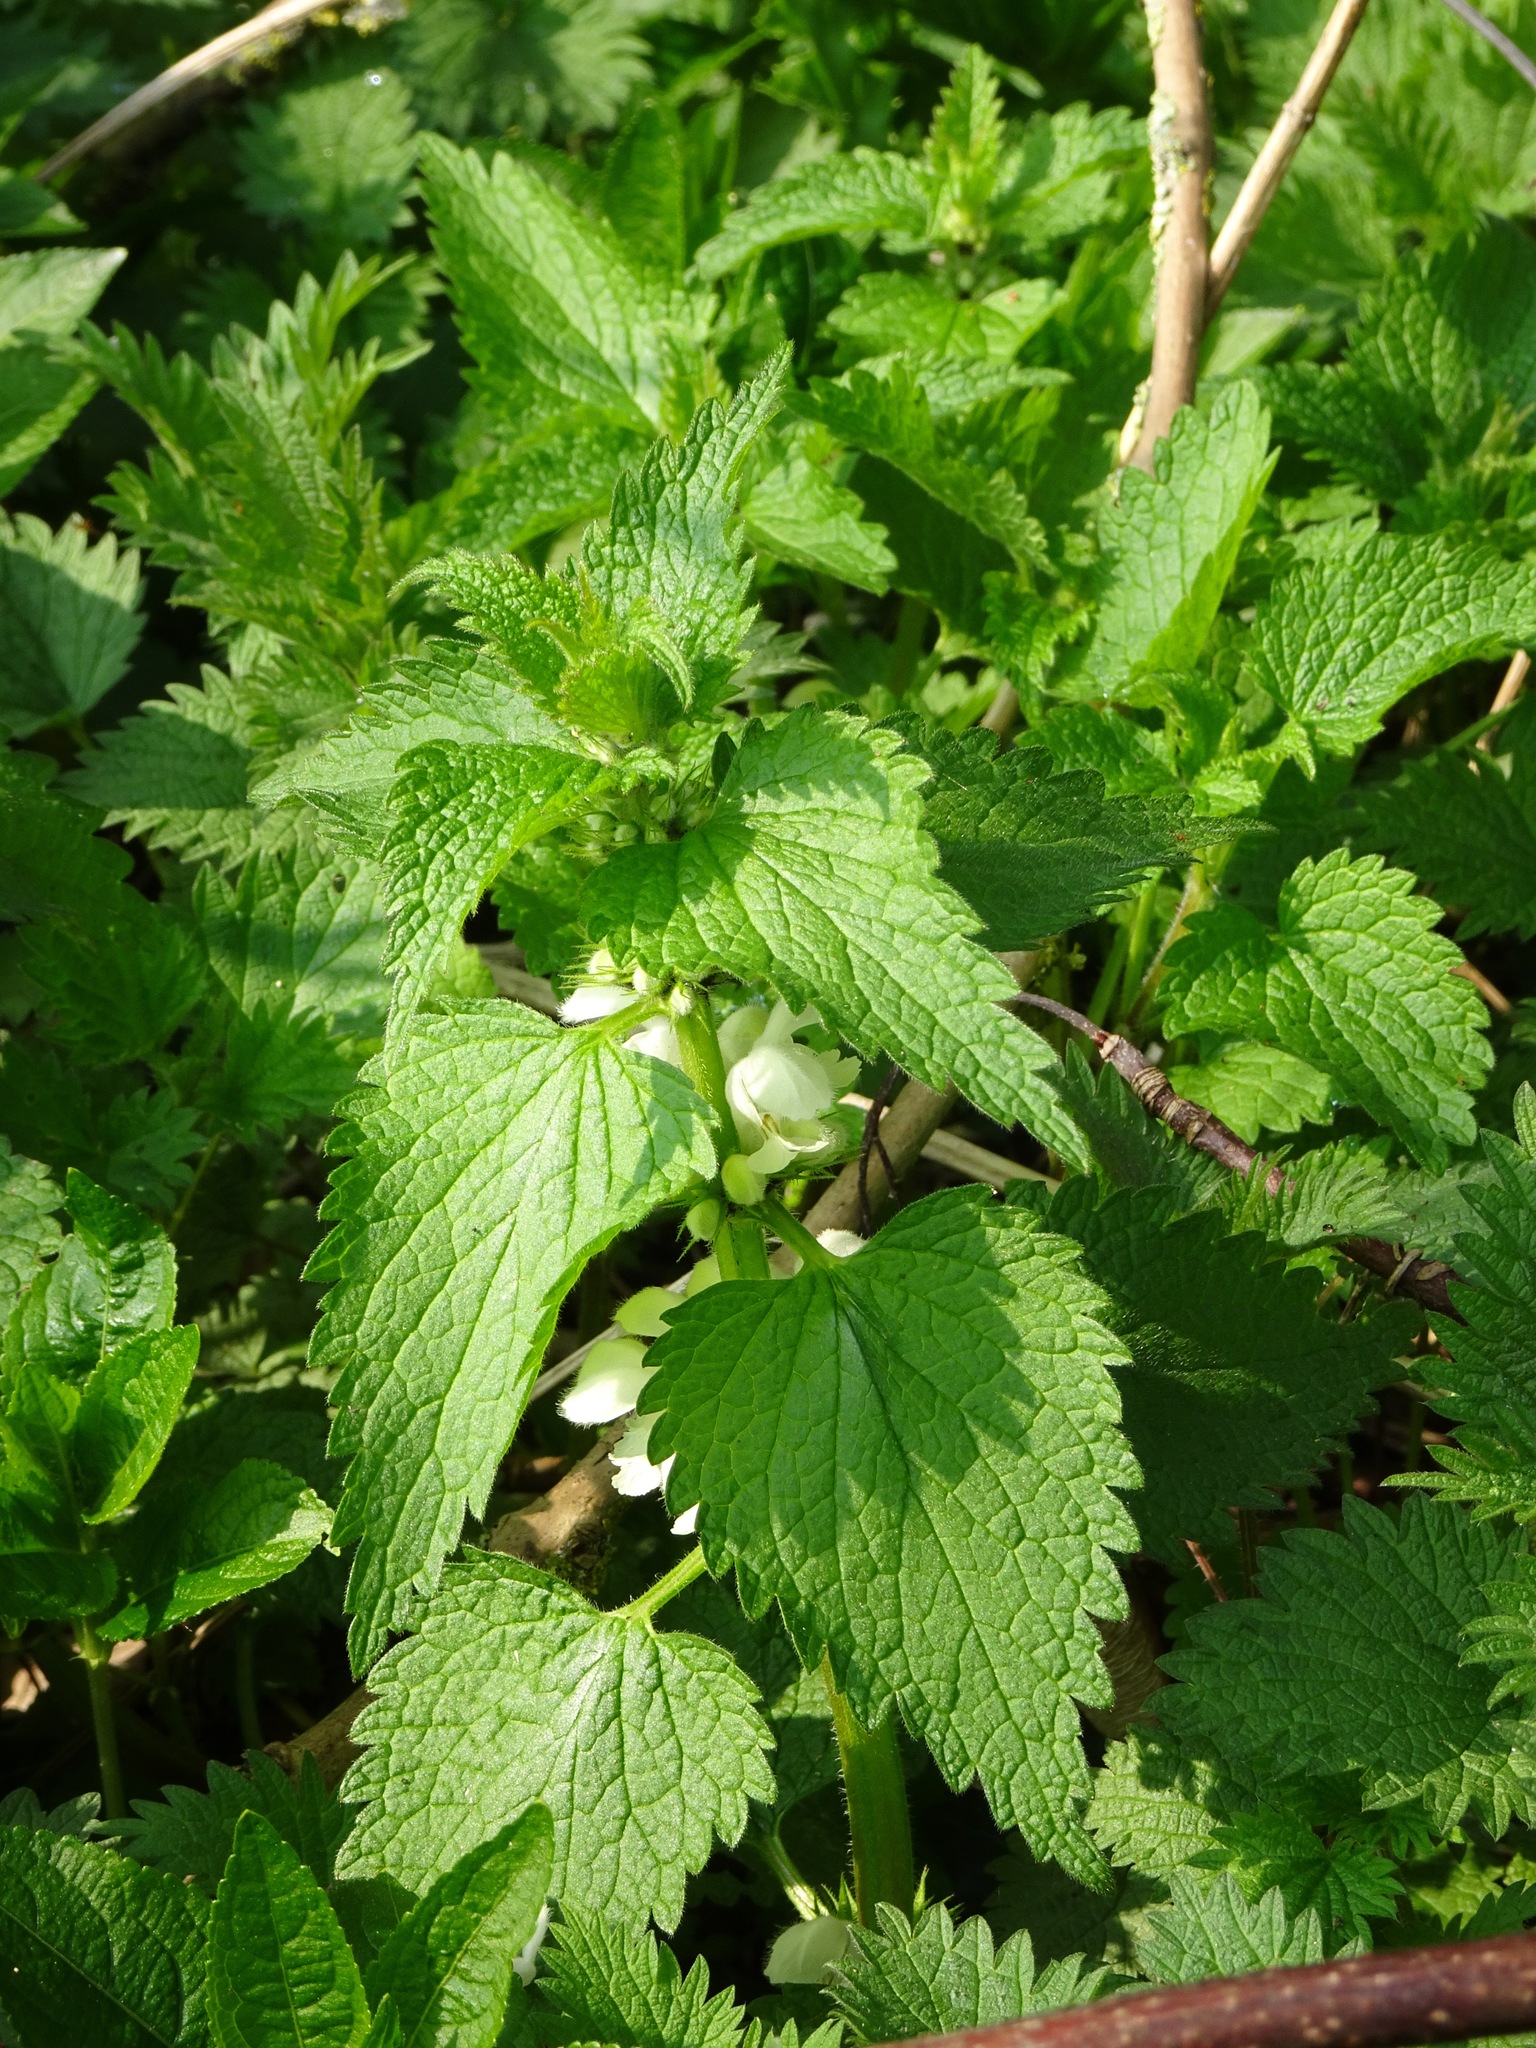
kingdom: Plantae
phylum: Tracheophyta
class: Magnoliopsida
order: Lamiales
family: Lamiaceae
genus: Lamium
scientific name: Lamium album
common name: White dead-nettle
